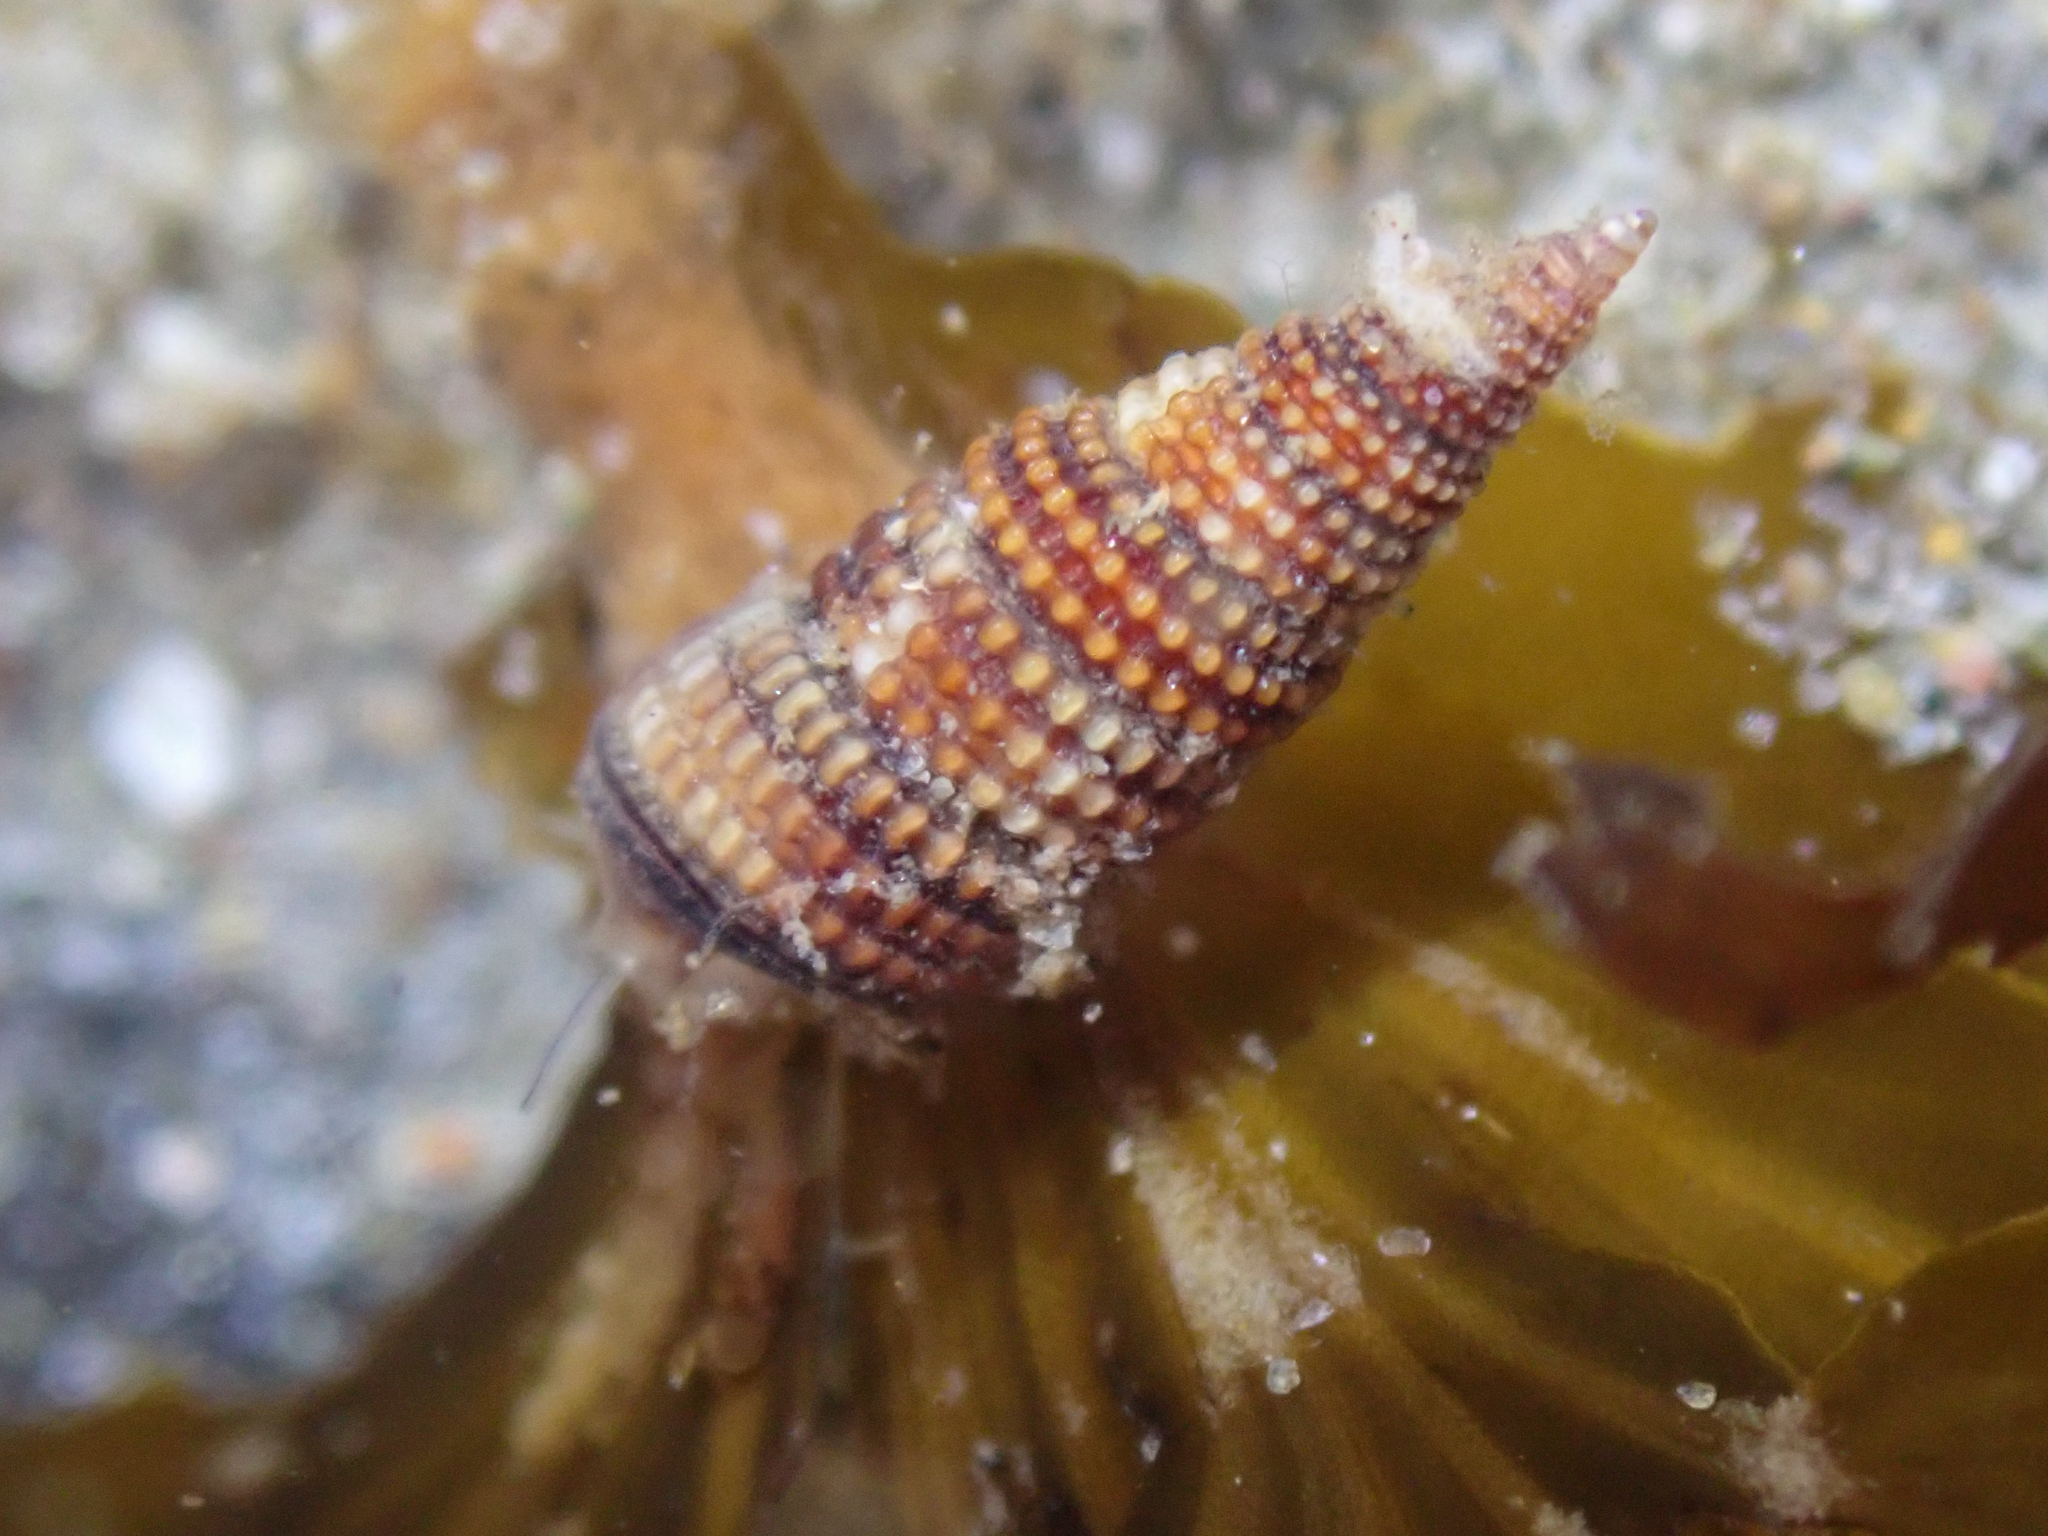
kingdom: Animalia
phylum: Mollusca
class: Gastropoda
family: Cerithiopsidae
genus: Cerithiopsidella
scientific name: Cerithiopsidella cosmia
